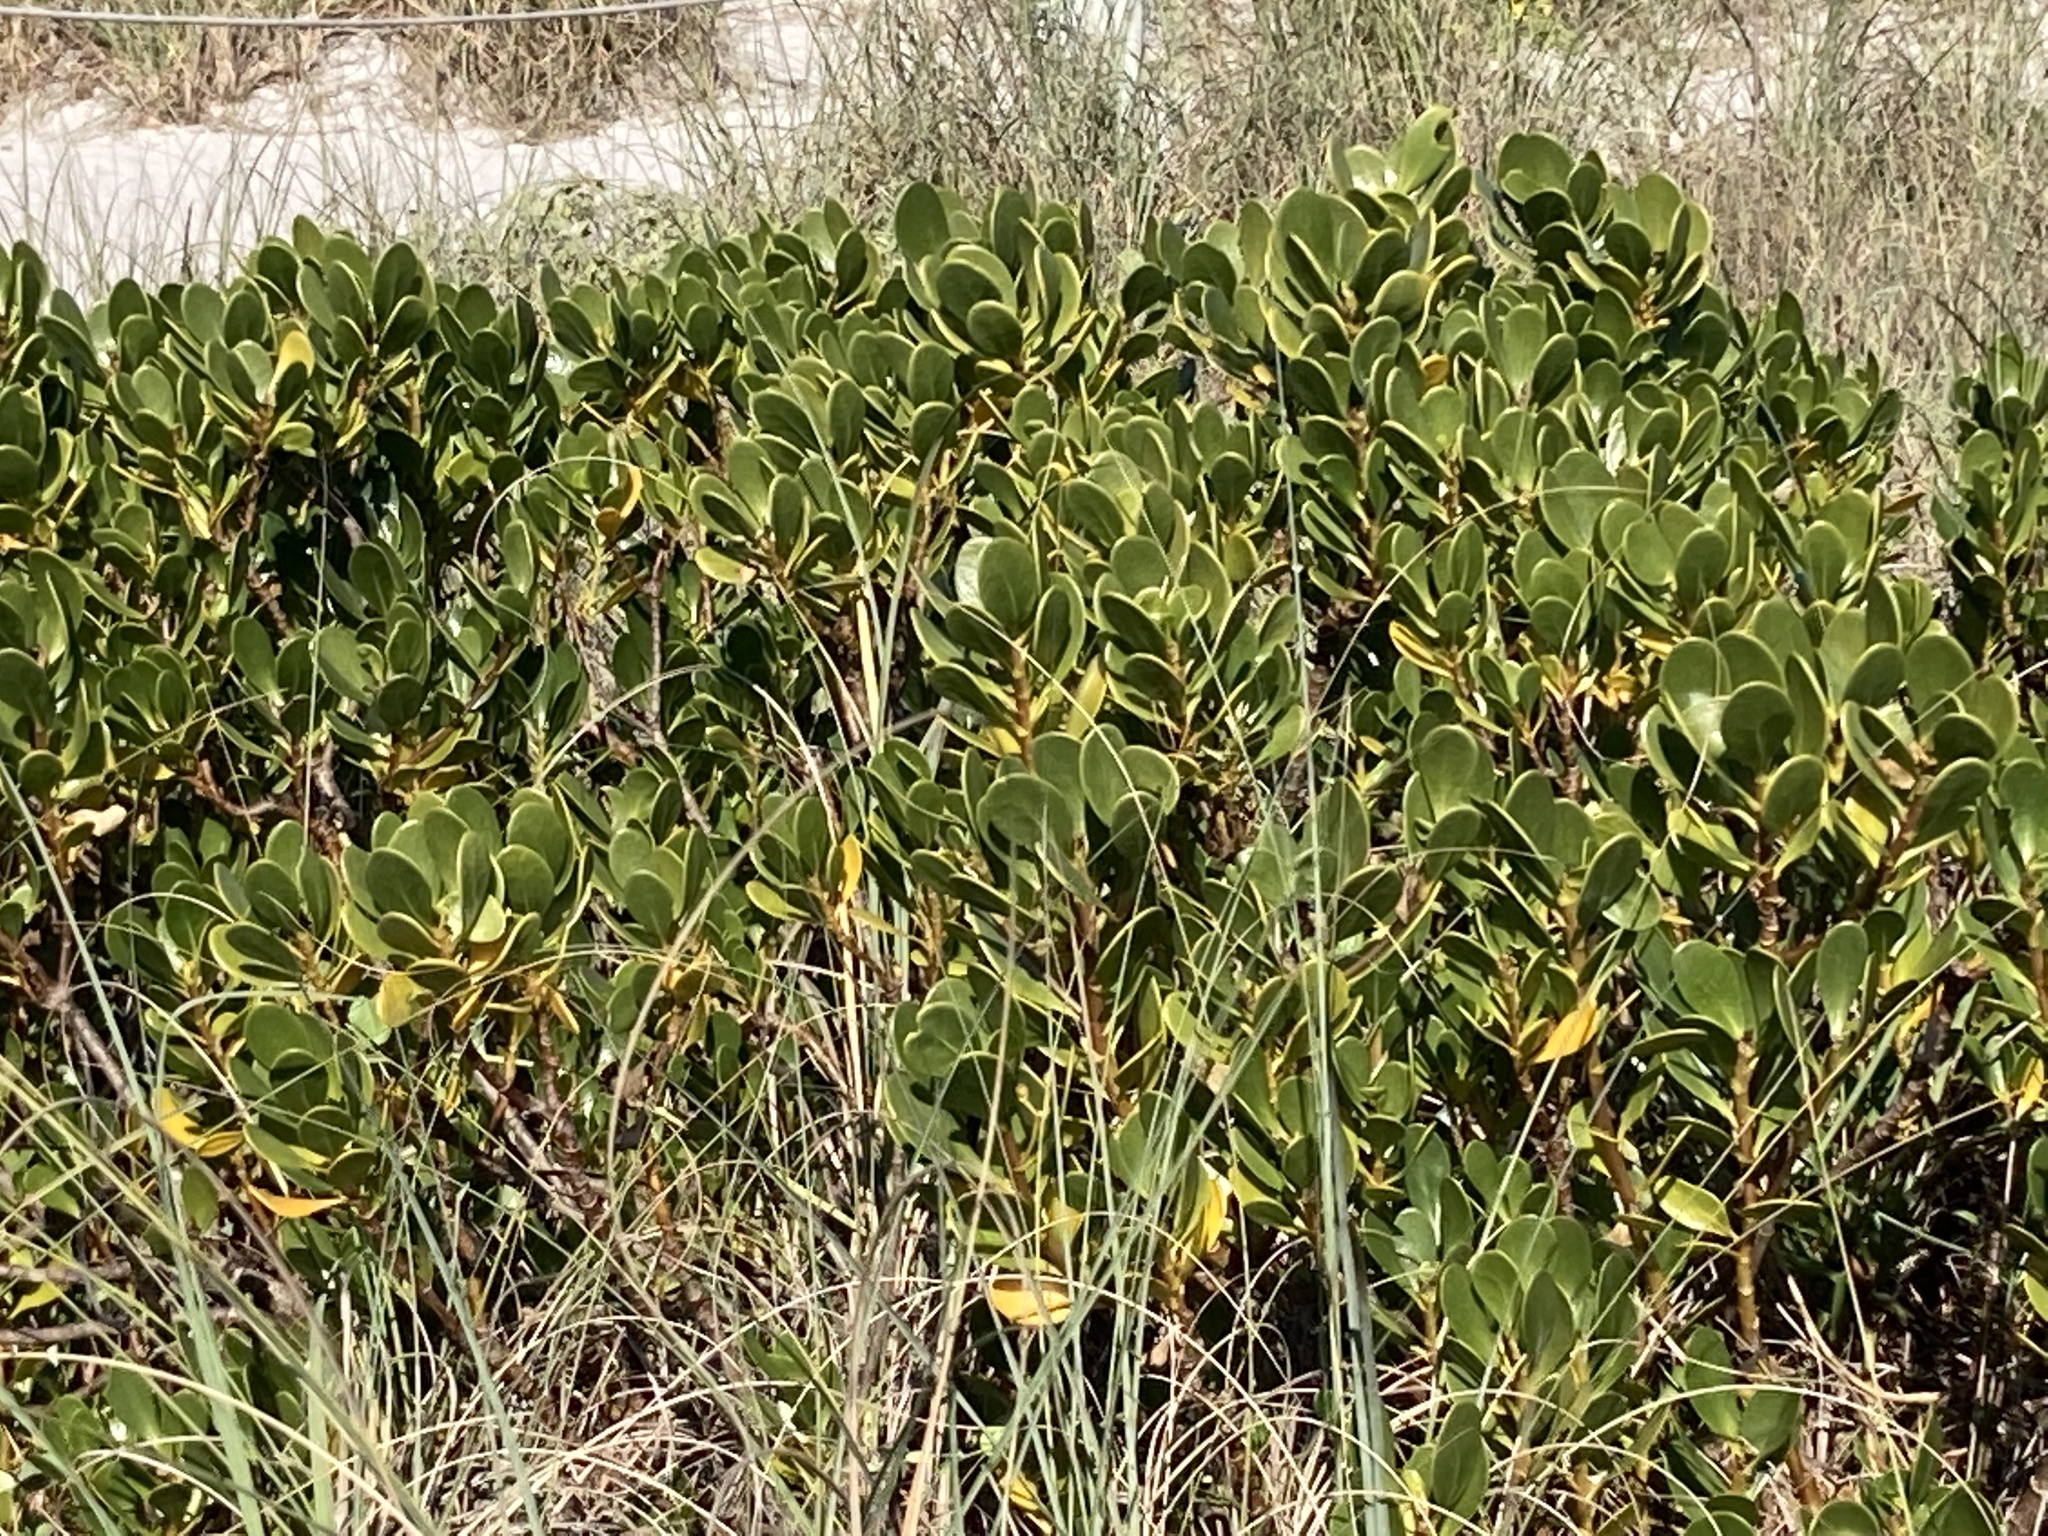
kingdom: Plantae
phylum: Tracheophyta
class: Magnoliopsida
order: Asterales
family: Goodeniaceae
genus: Scaevola
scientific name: Scaevola plumieri
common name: Gull feed
